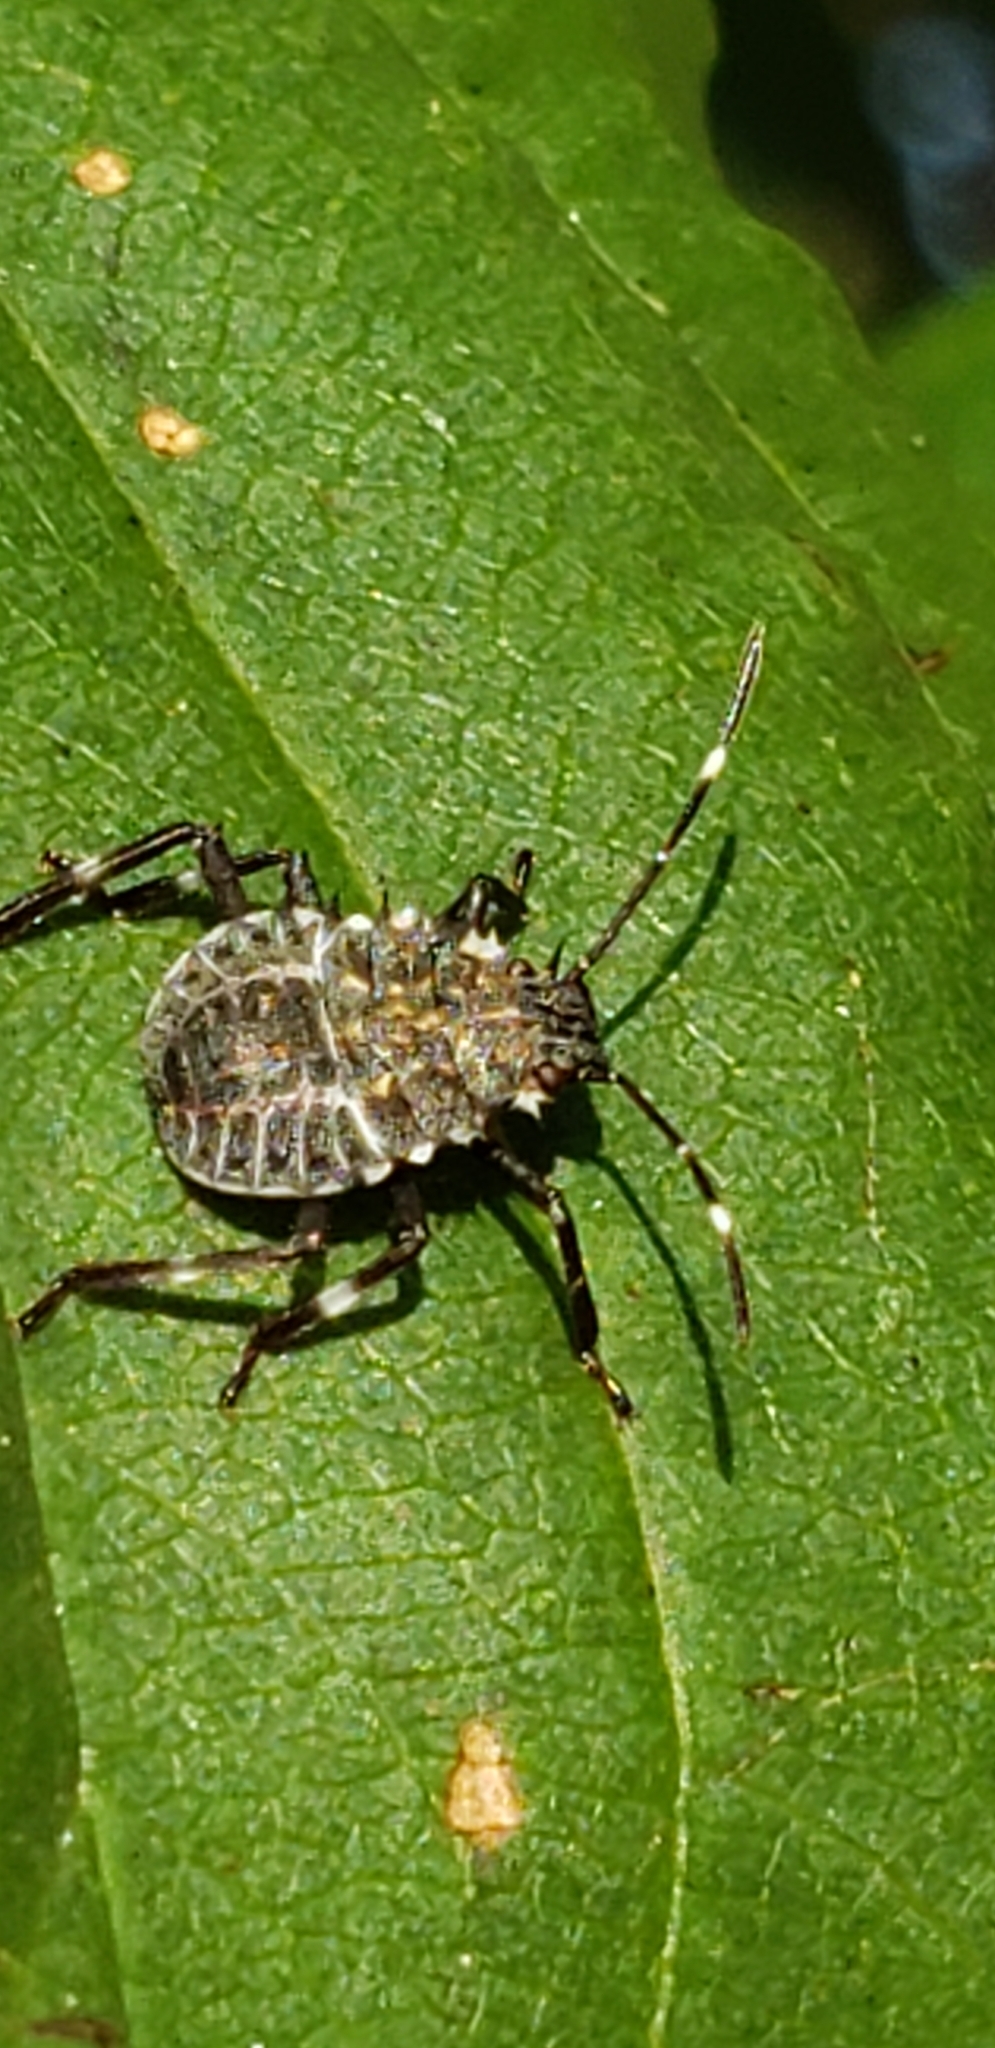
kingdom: Animalia
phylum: Arthropoda
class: Insecta
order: Hemiptera
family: Pentatomidae
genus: Halyomorpha
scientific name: Halyomorpha halys
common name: Brown marmorated stink bug
